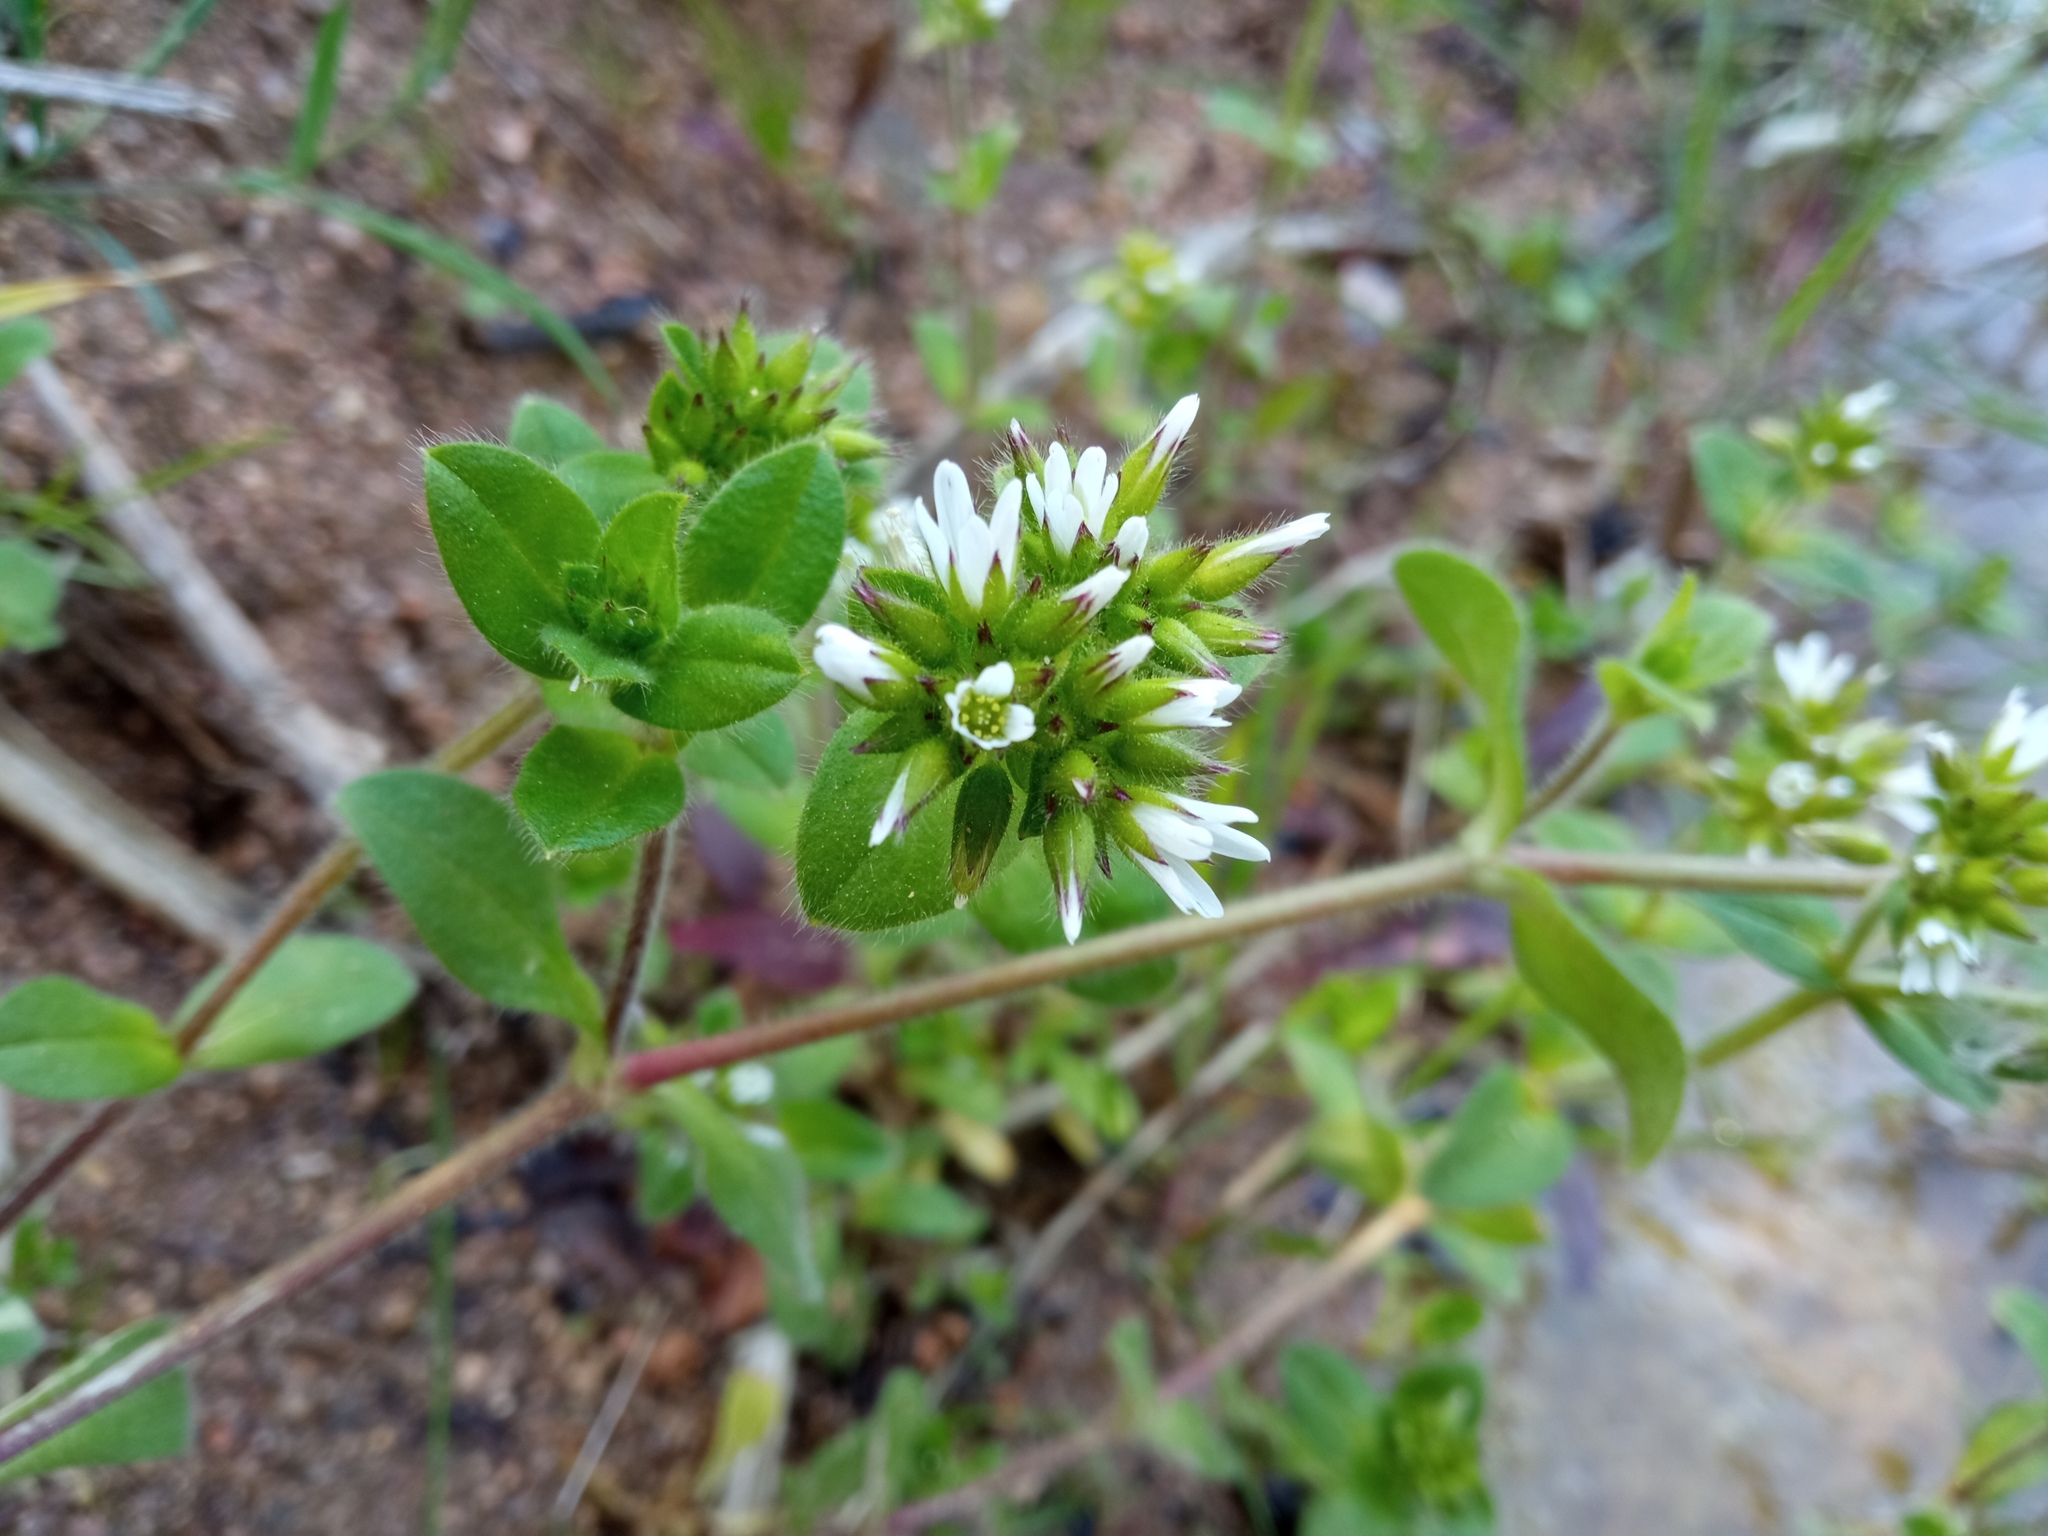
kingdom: Plantae
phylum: Tracheophyta
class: Magnoliopsida
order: Caryophyllales
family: Caryophyllaceae
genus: Cerastium
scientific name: Cerastium glomeratum
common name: Sticky chickweed
